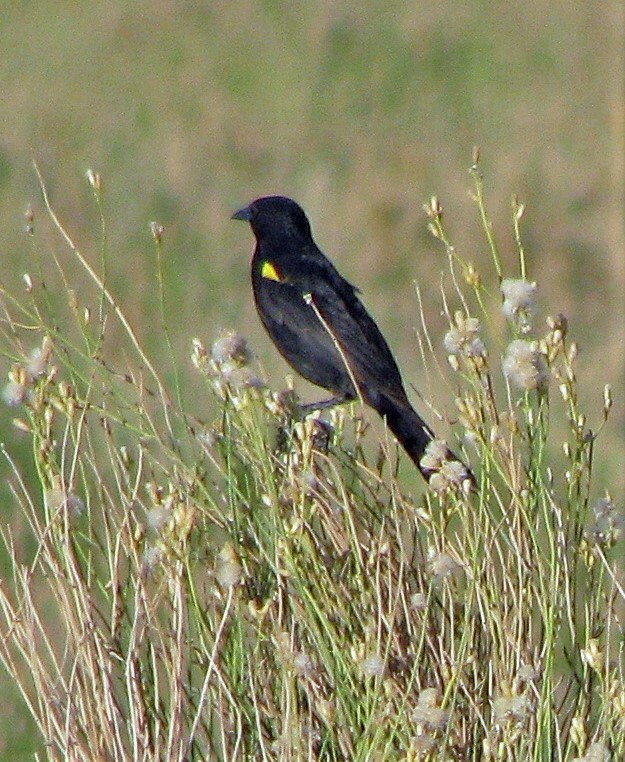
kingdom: Animalia
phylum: Chordata
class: Aves
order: Passeriformes
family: Icteridae
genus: Agelasticus
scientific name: Agelasticus thilius
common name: Yellow-winged blackbird
